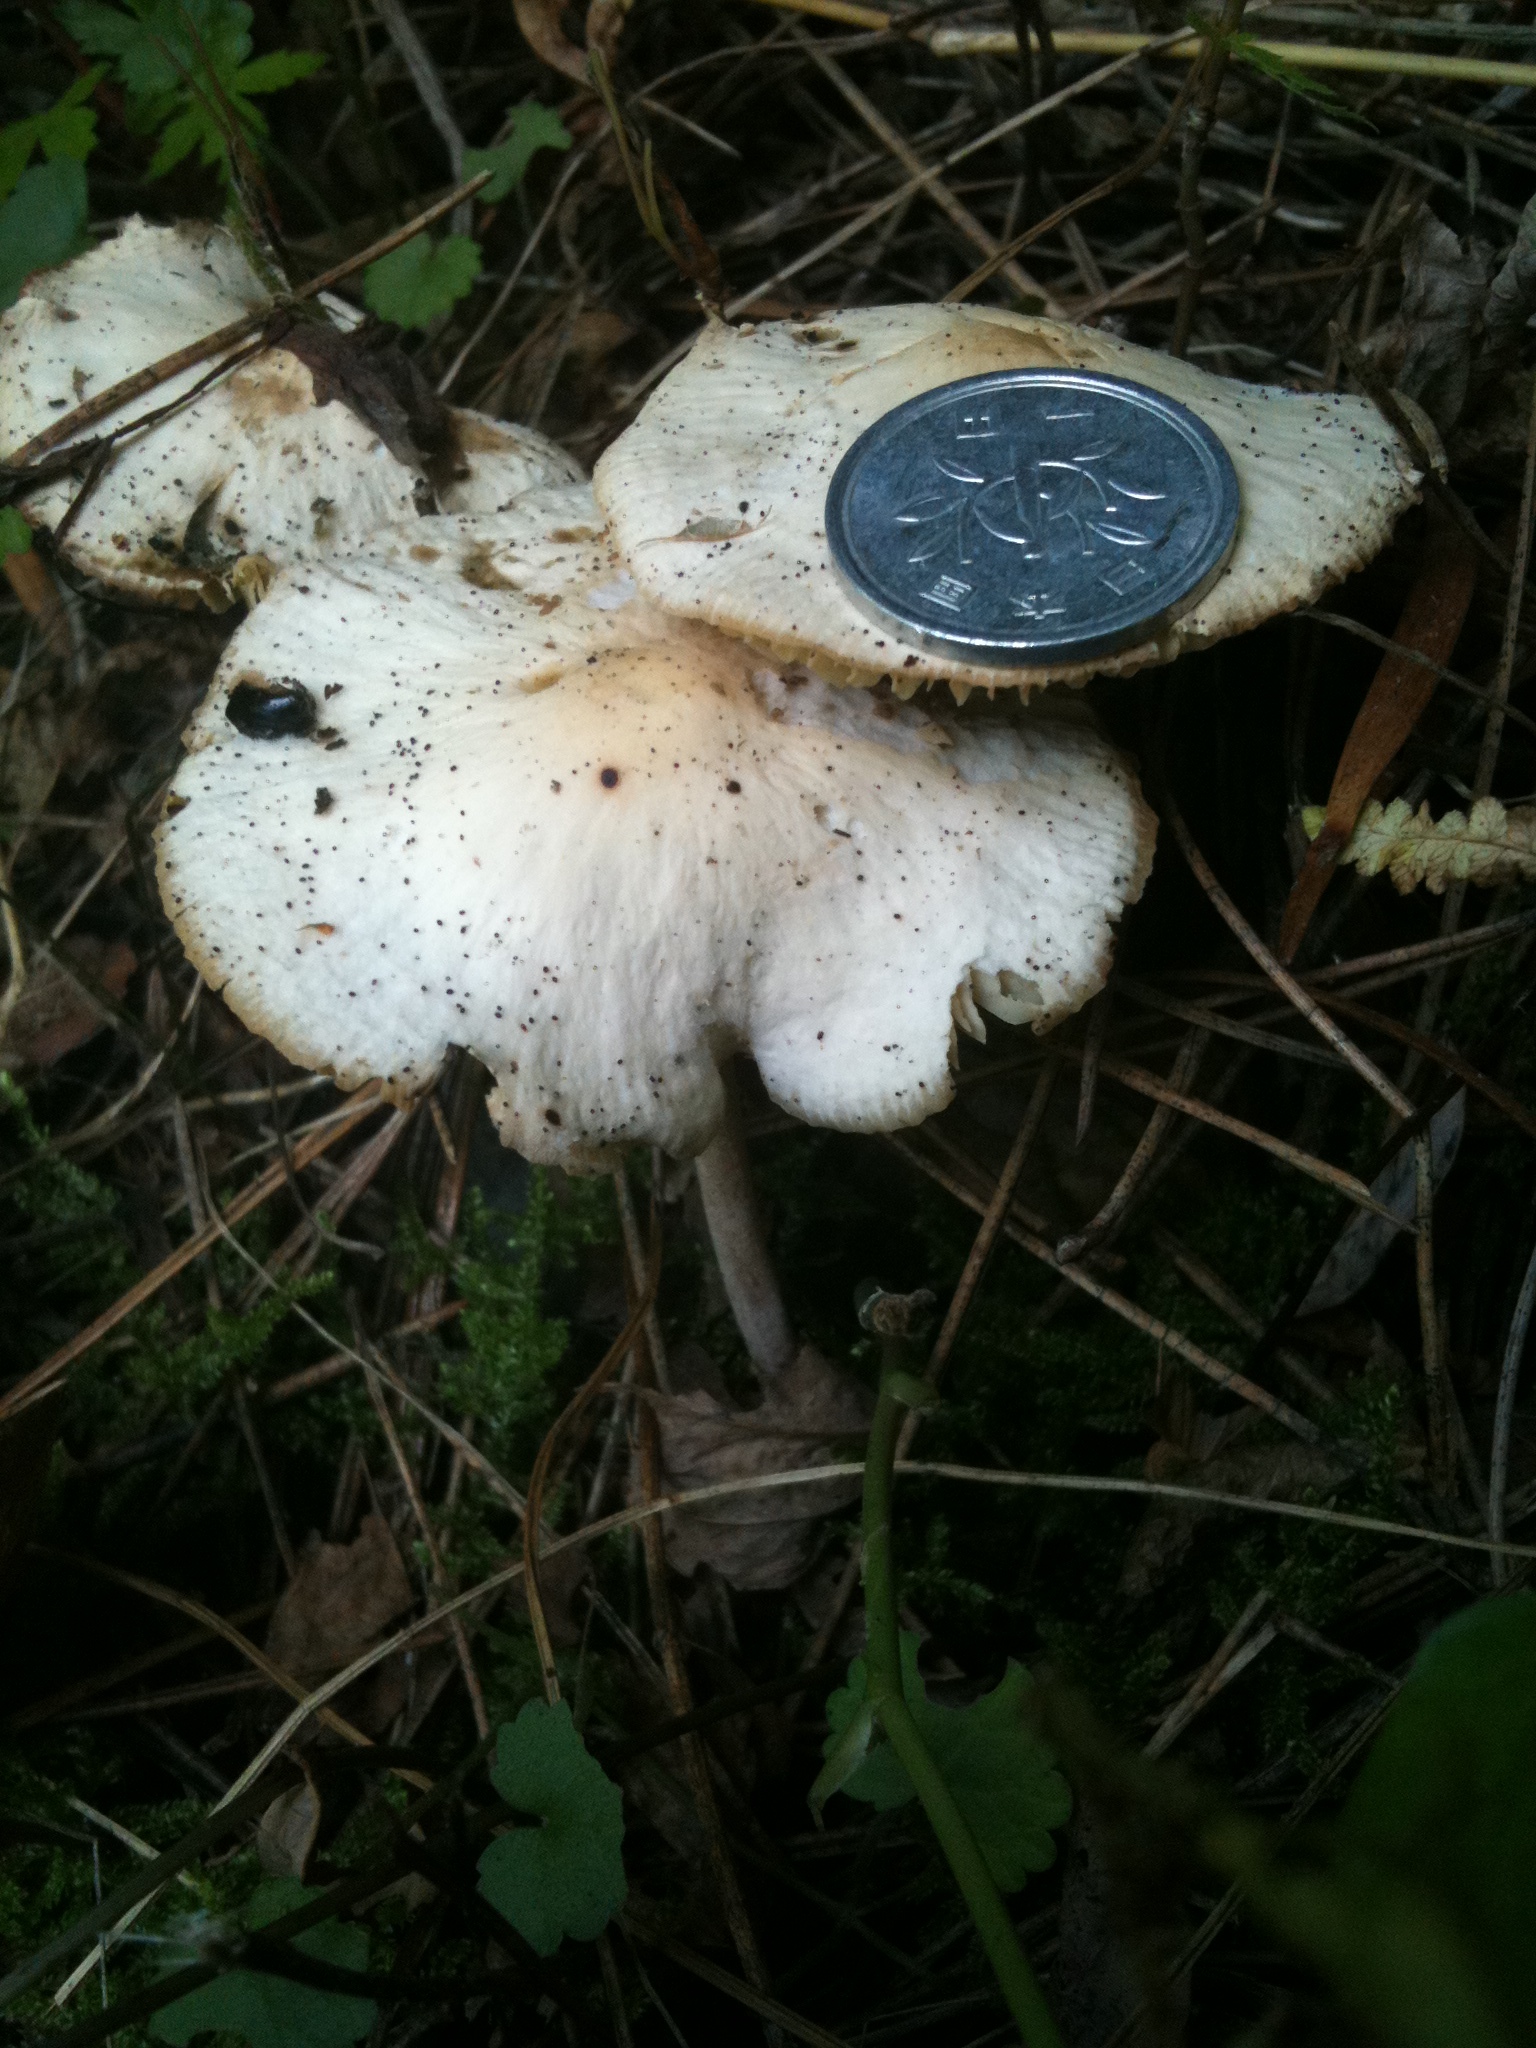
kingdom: Fungi
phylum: Basidiomycota
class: Agaricomycetes
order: Agaricales
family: Marasmiaceae
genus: Marasmius
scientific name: Marasmius maximus
